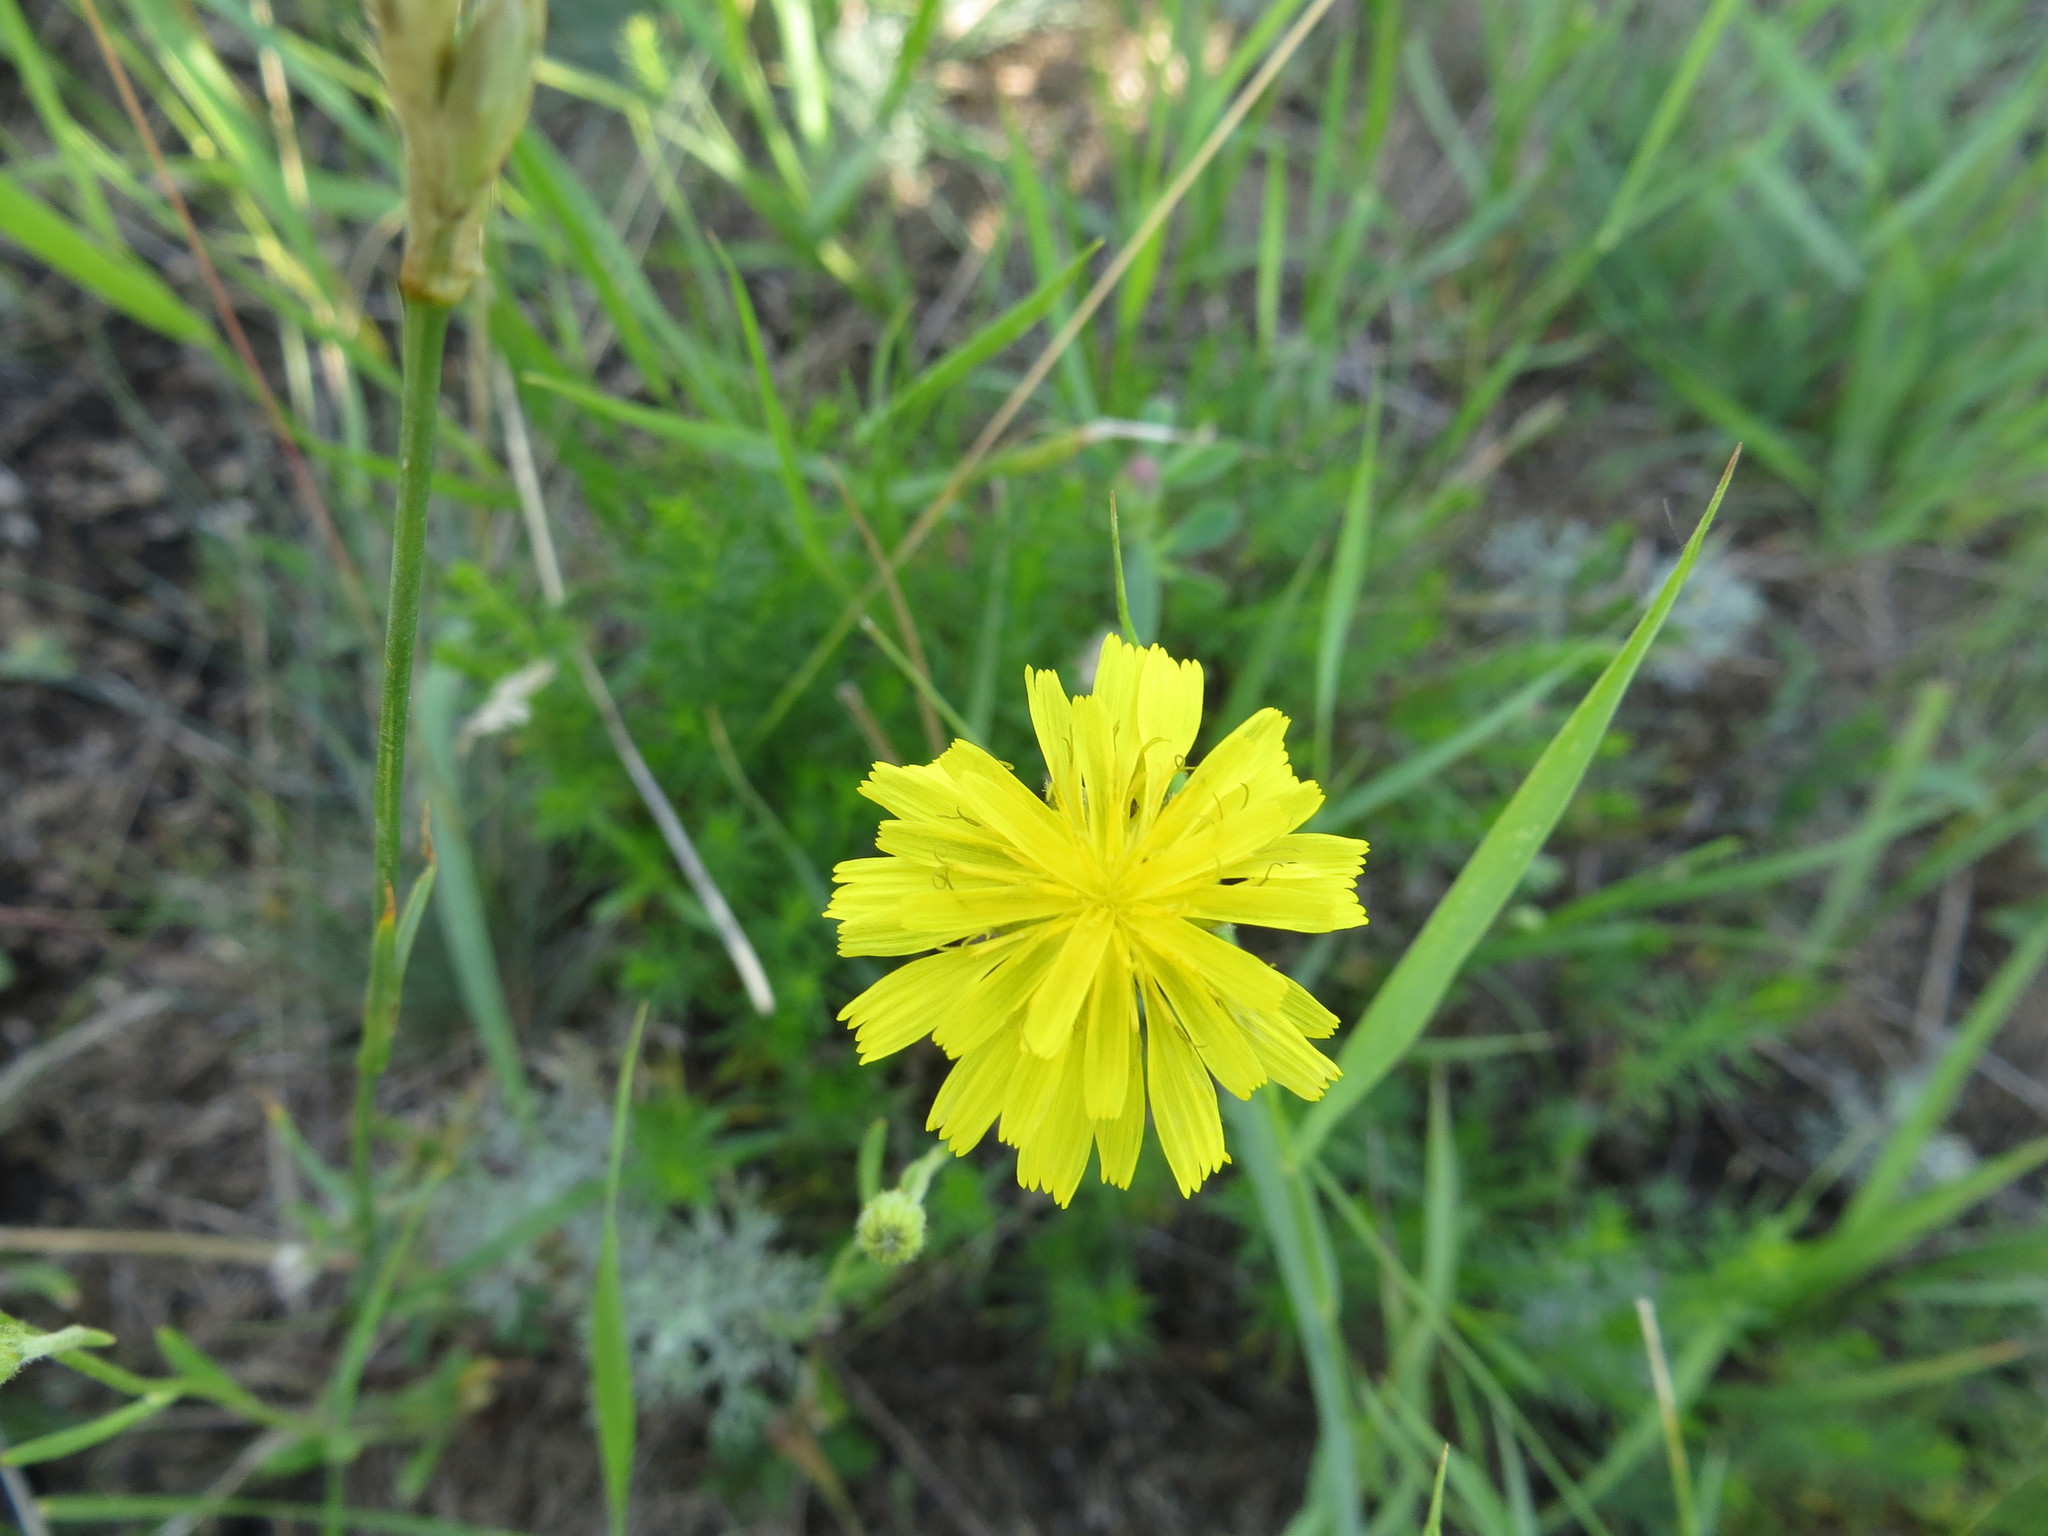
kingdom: Plantae
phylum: Tracheophyta
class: Magnoliopsida
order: Asterales
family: Asteraceae
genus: Crepis
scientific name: Crepis tectorum
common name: Narrow-leaved hawk's-beard
